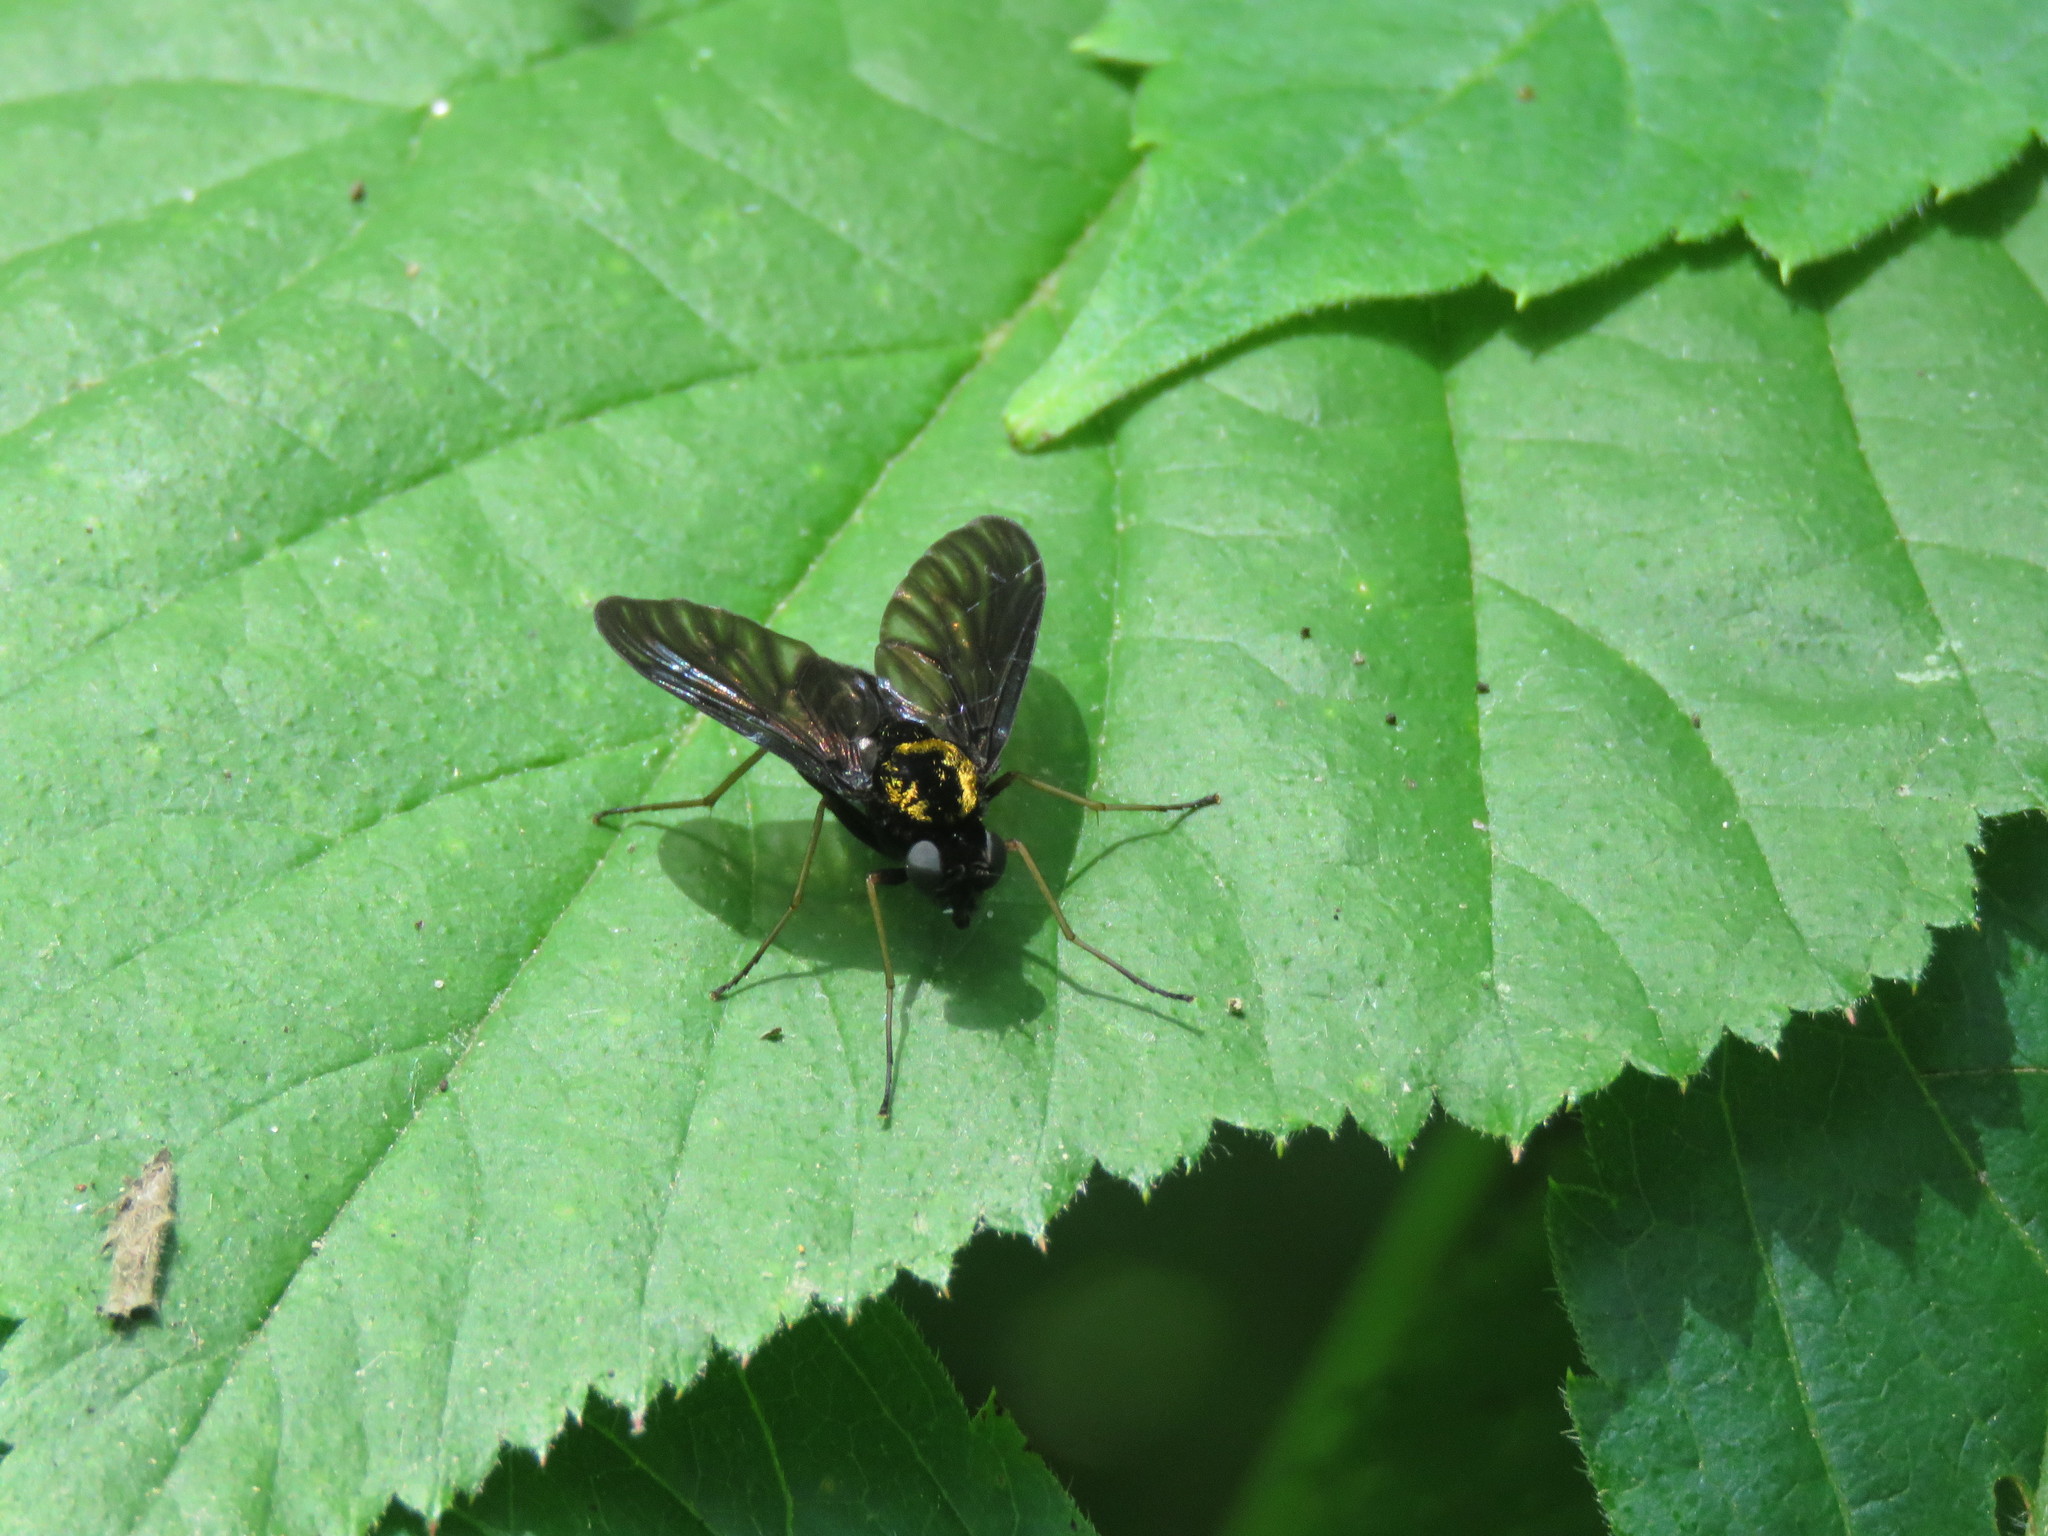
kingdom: Animalia
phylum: Arthropoda
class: Insecta
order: Diptera
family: Rhagionidae
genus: Chrysopilus
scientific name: Chrysopilus thoracicus
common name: Golden-backed snipe fly
